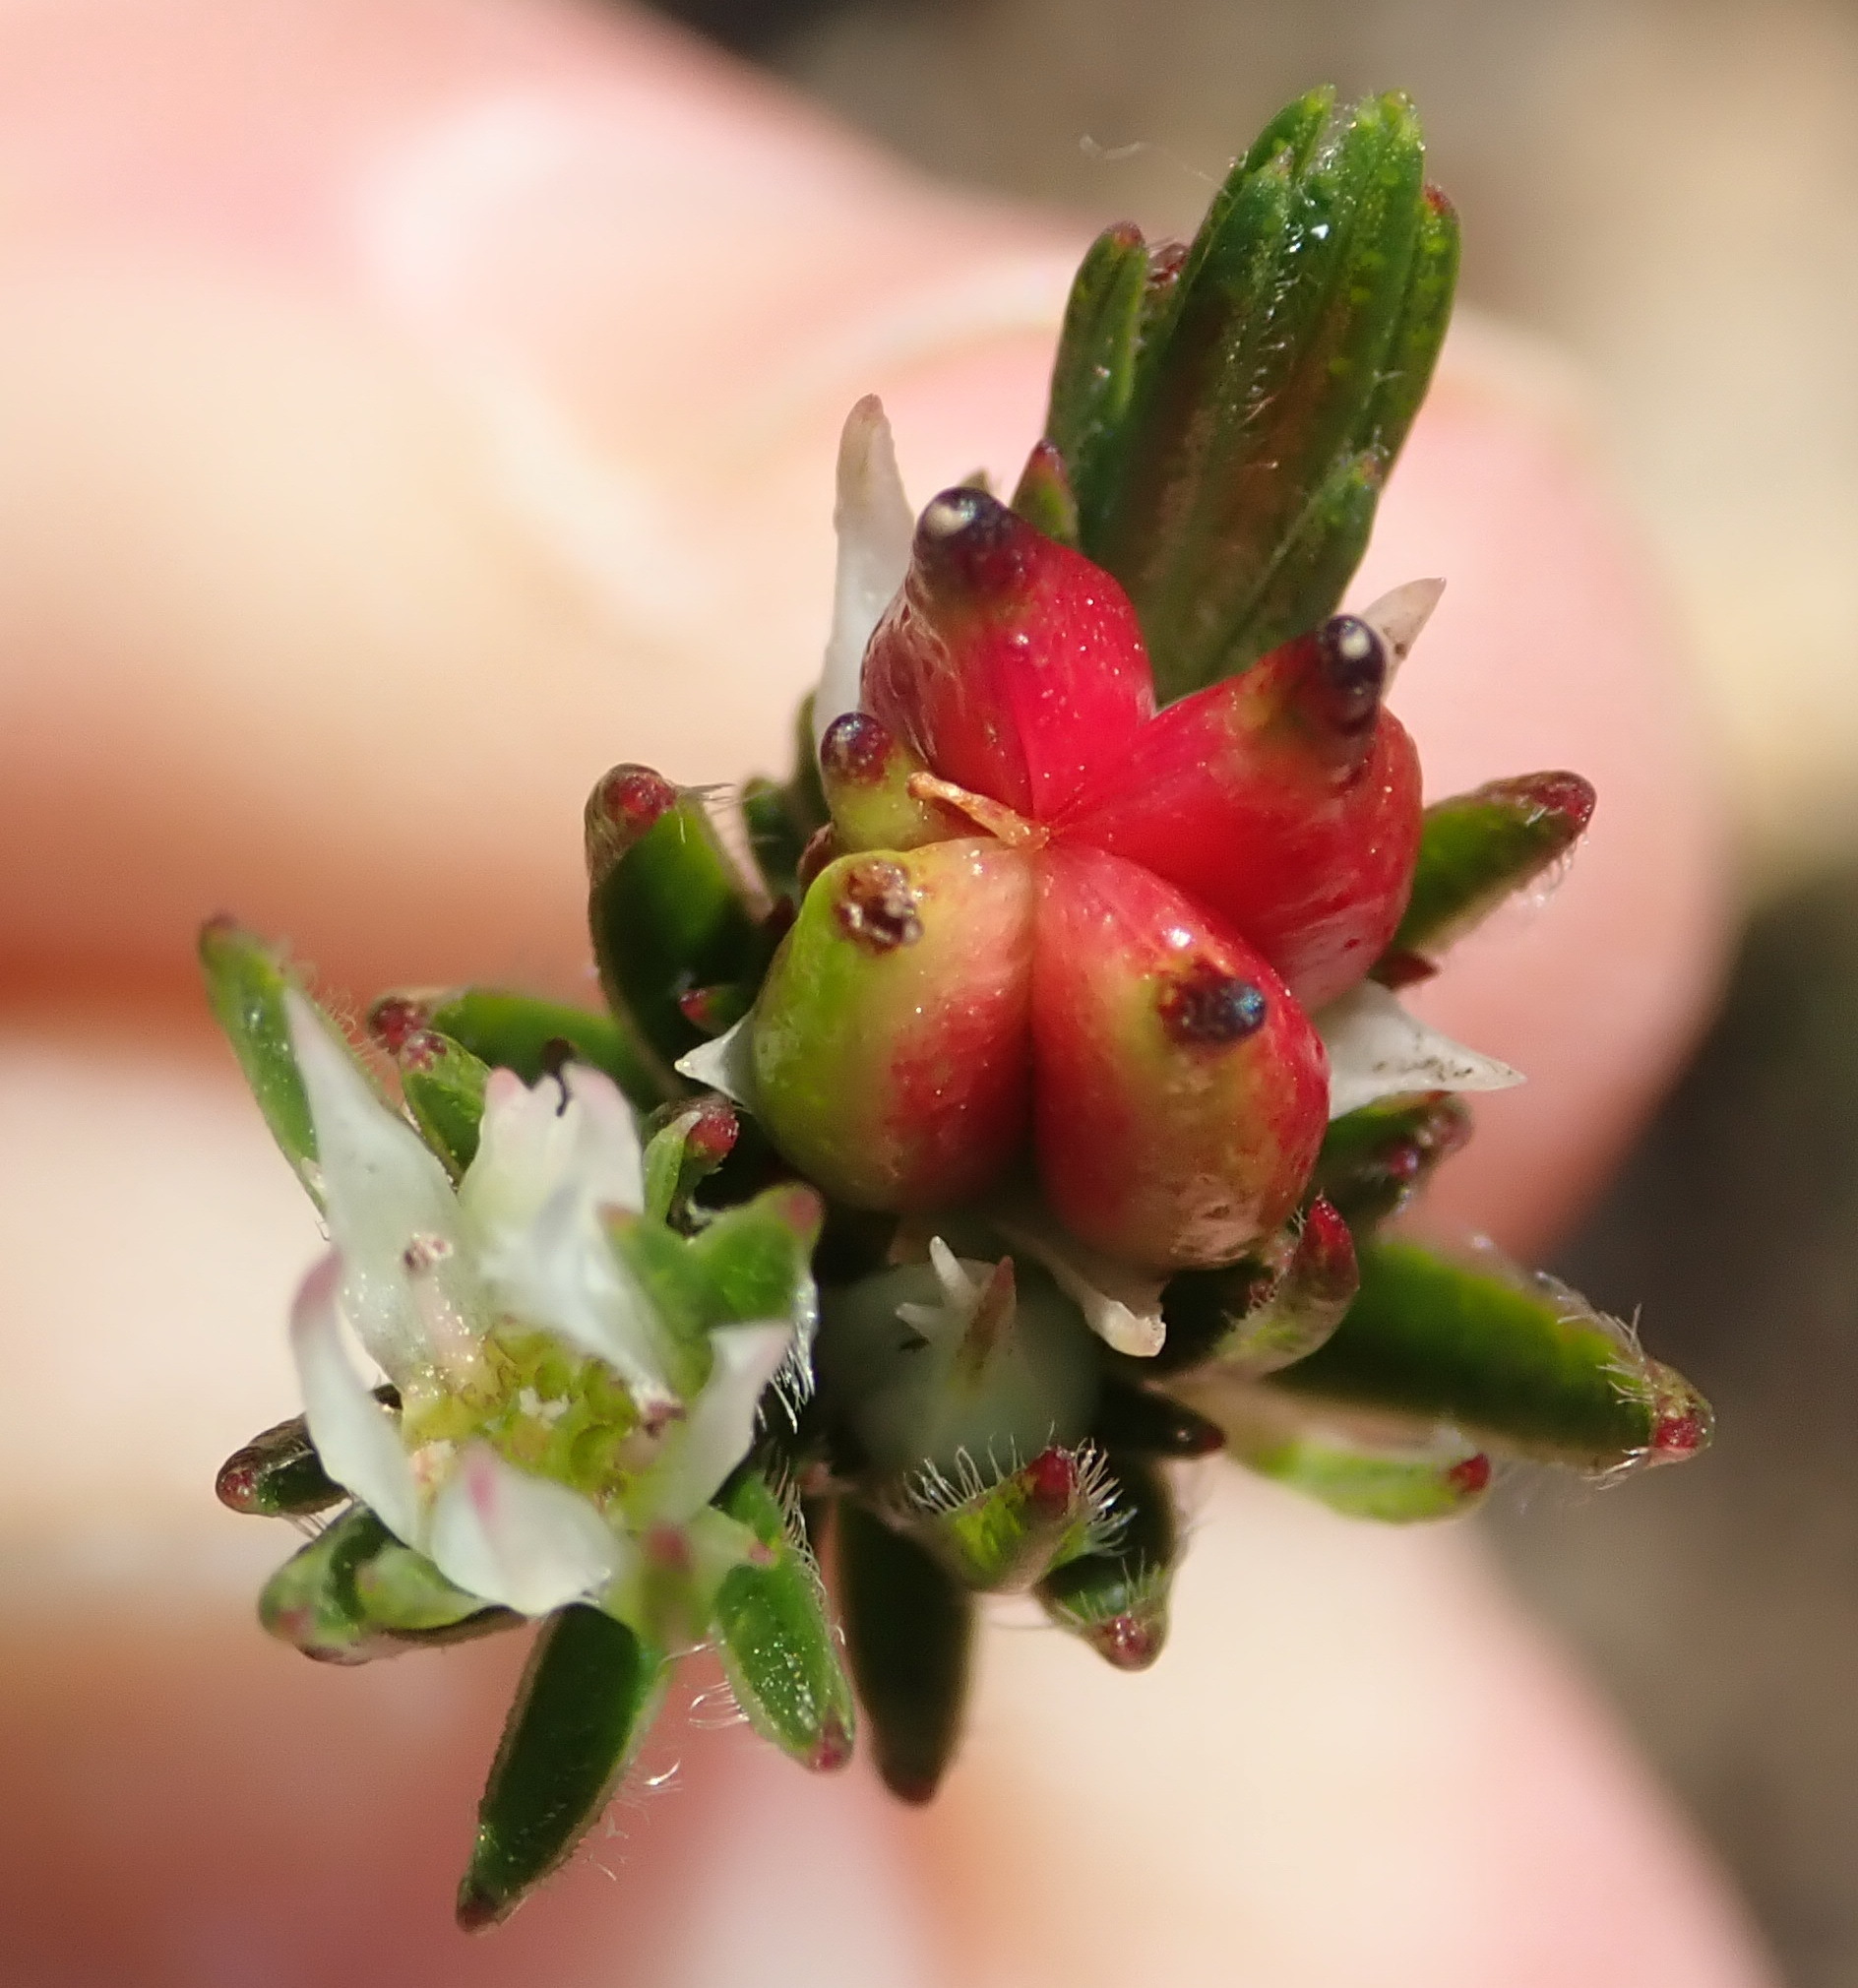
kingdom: Plantae
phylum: Tracheophyta
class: Magnoliopsida
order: Sapindales
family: Rutaceae
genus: Euchaetis
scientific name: Euchaetis avisylvana
